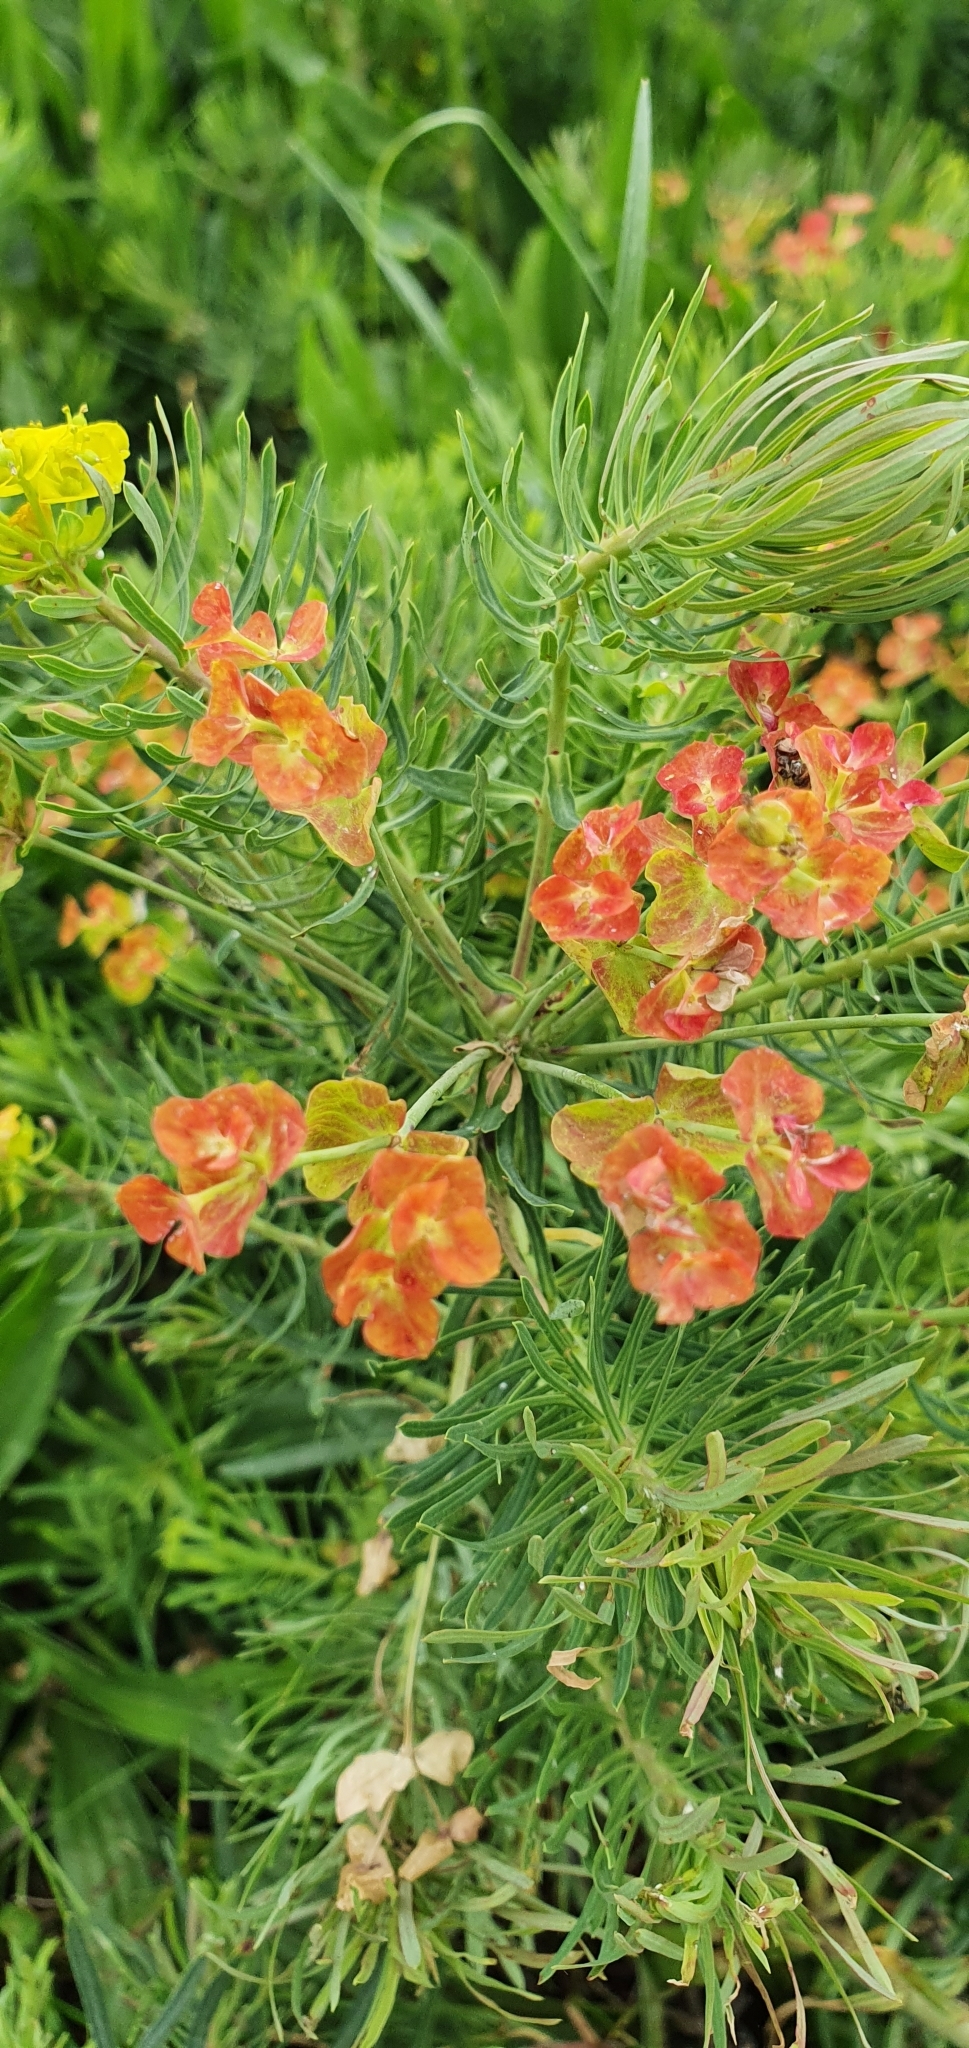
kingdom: Plantae
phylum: Tracheophyta
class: Magnoliopsida
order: Malpighiales
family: Euphorbiaceae
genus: Euphorbia
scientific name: Euphorbia cyparissias
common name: Cypress spurge
